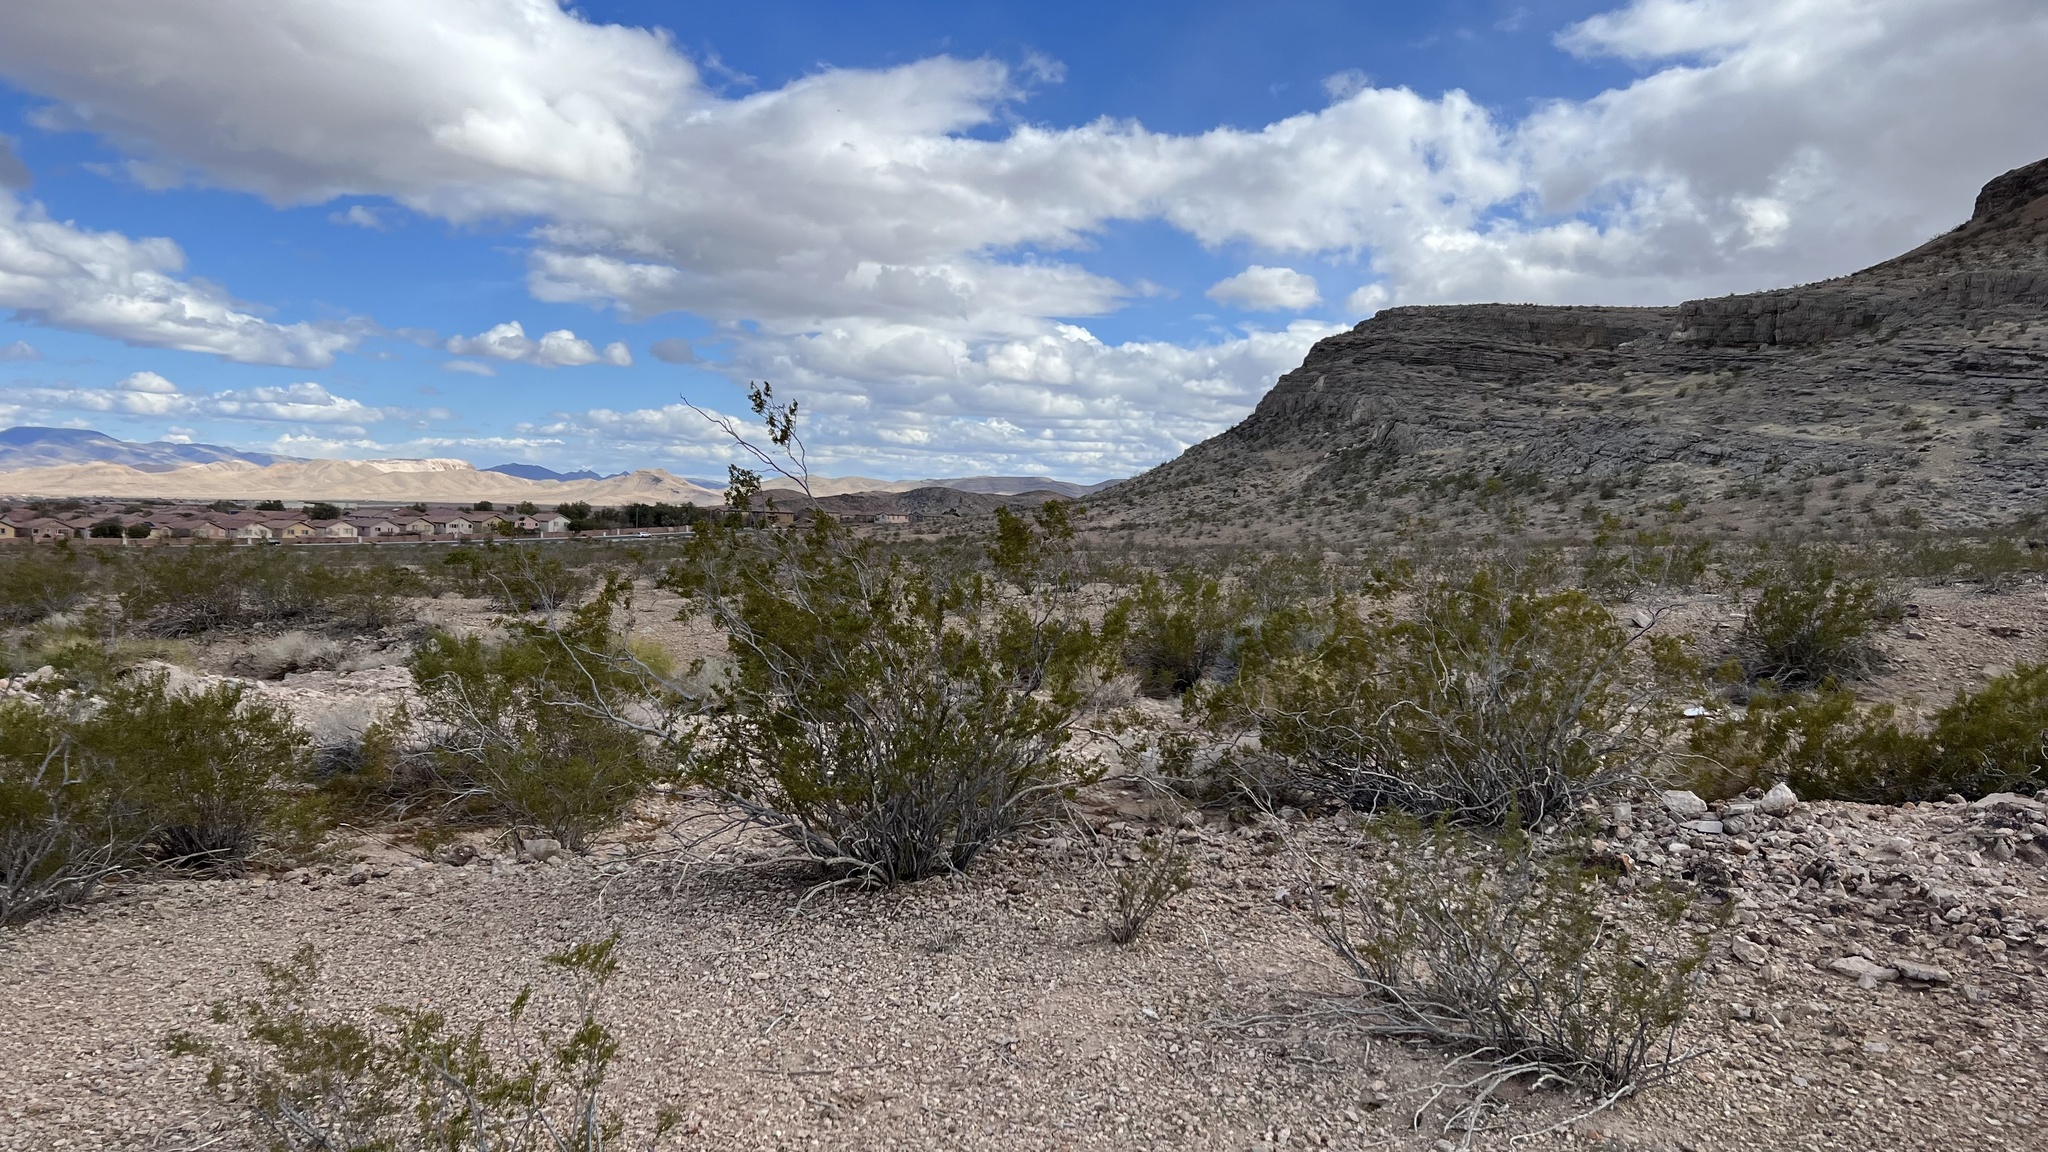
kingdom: Plantae
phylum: Tracheophyta
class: Magnoliopsida
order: Zygophyllales
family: Zygophyllaceae
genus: Larrea
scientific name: Larrea tridentata
